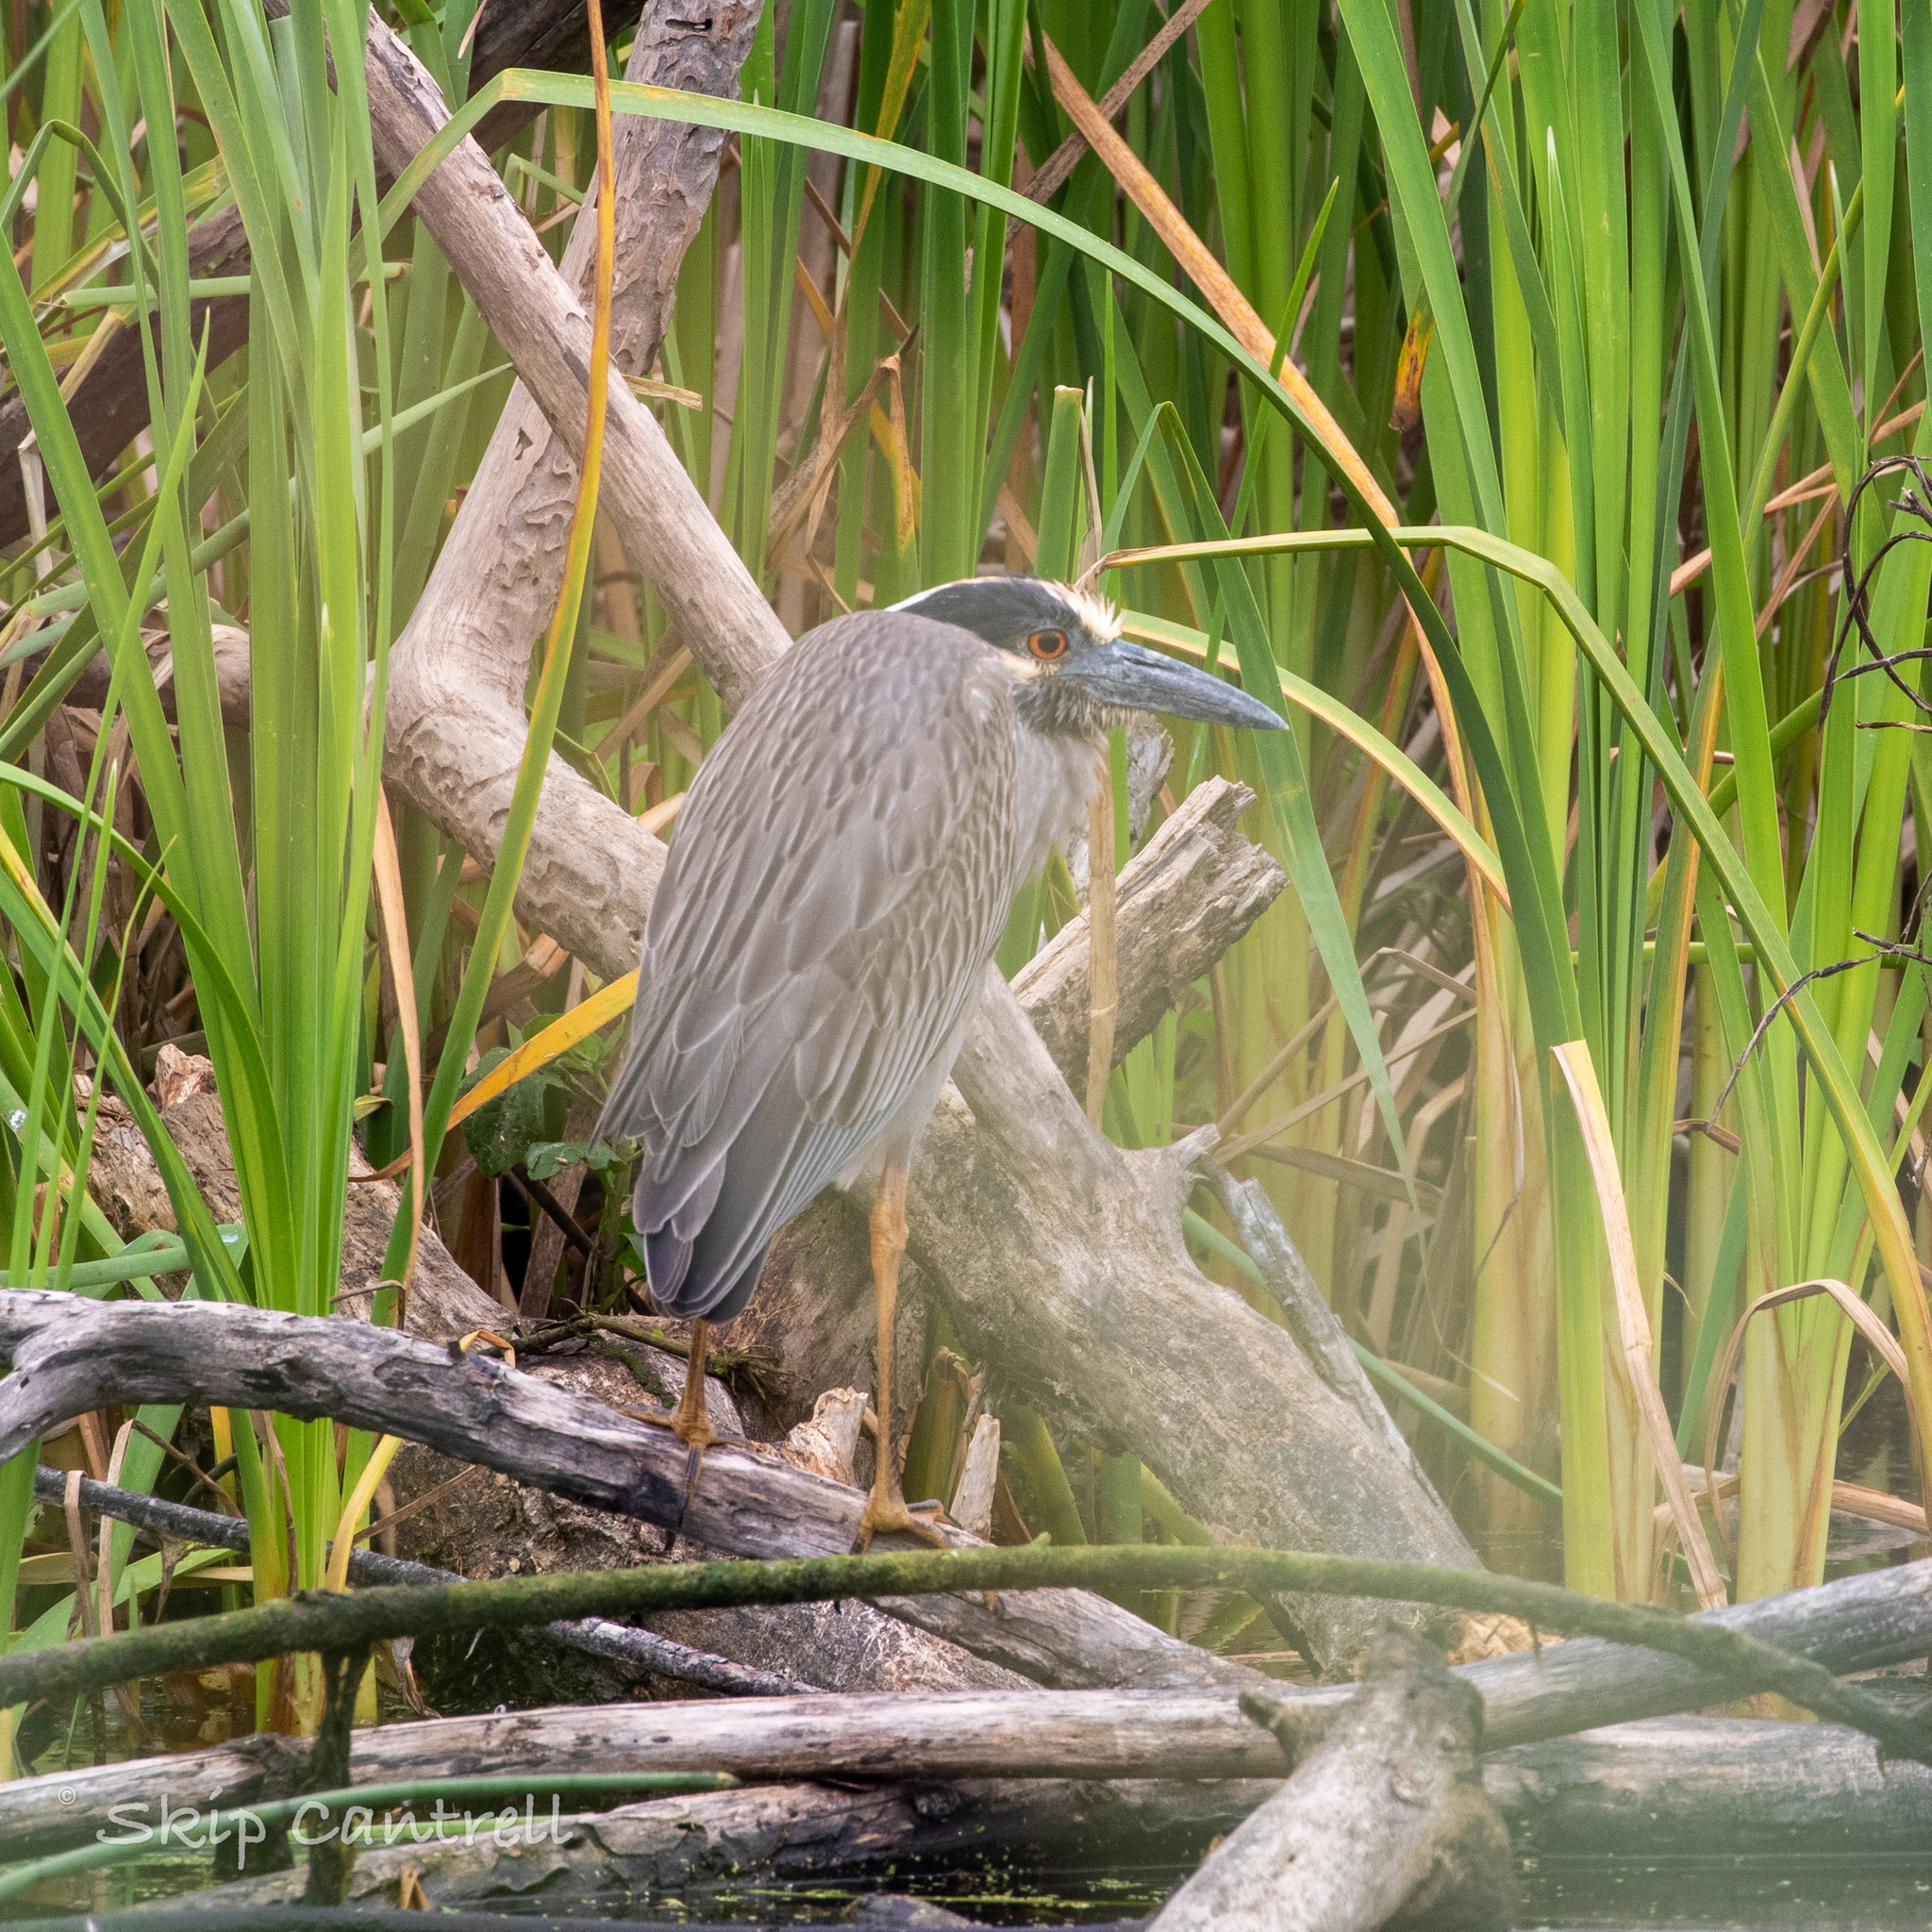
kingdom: Animalia
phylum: Chordata
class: Aves
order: Pelecaniformes
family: Ardeidae
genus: Nyctanassa
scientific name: Nyctanassa violacea
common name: Yellow-crowned night heron
